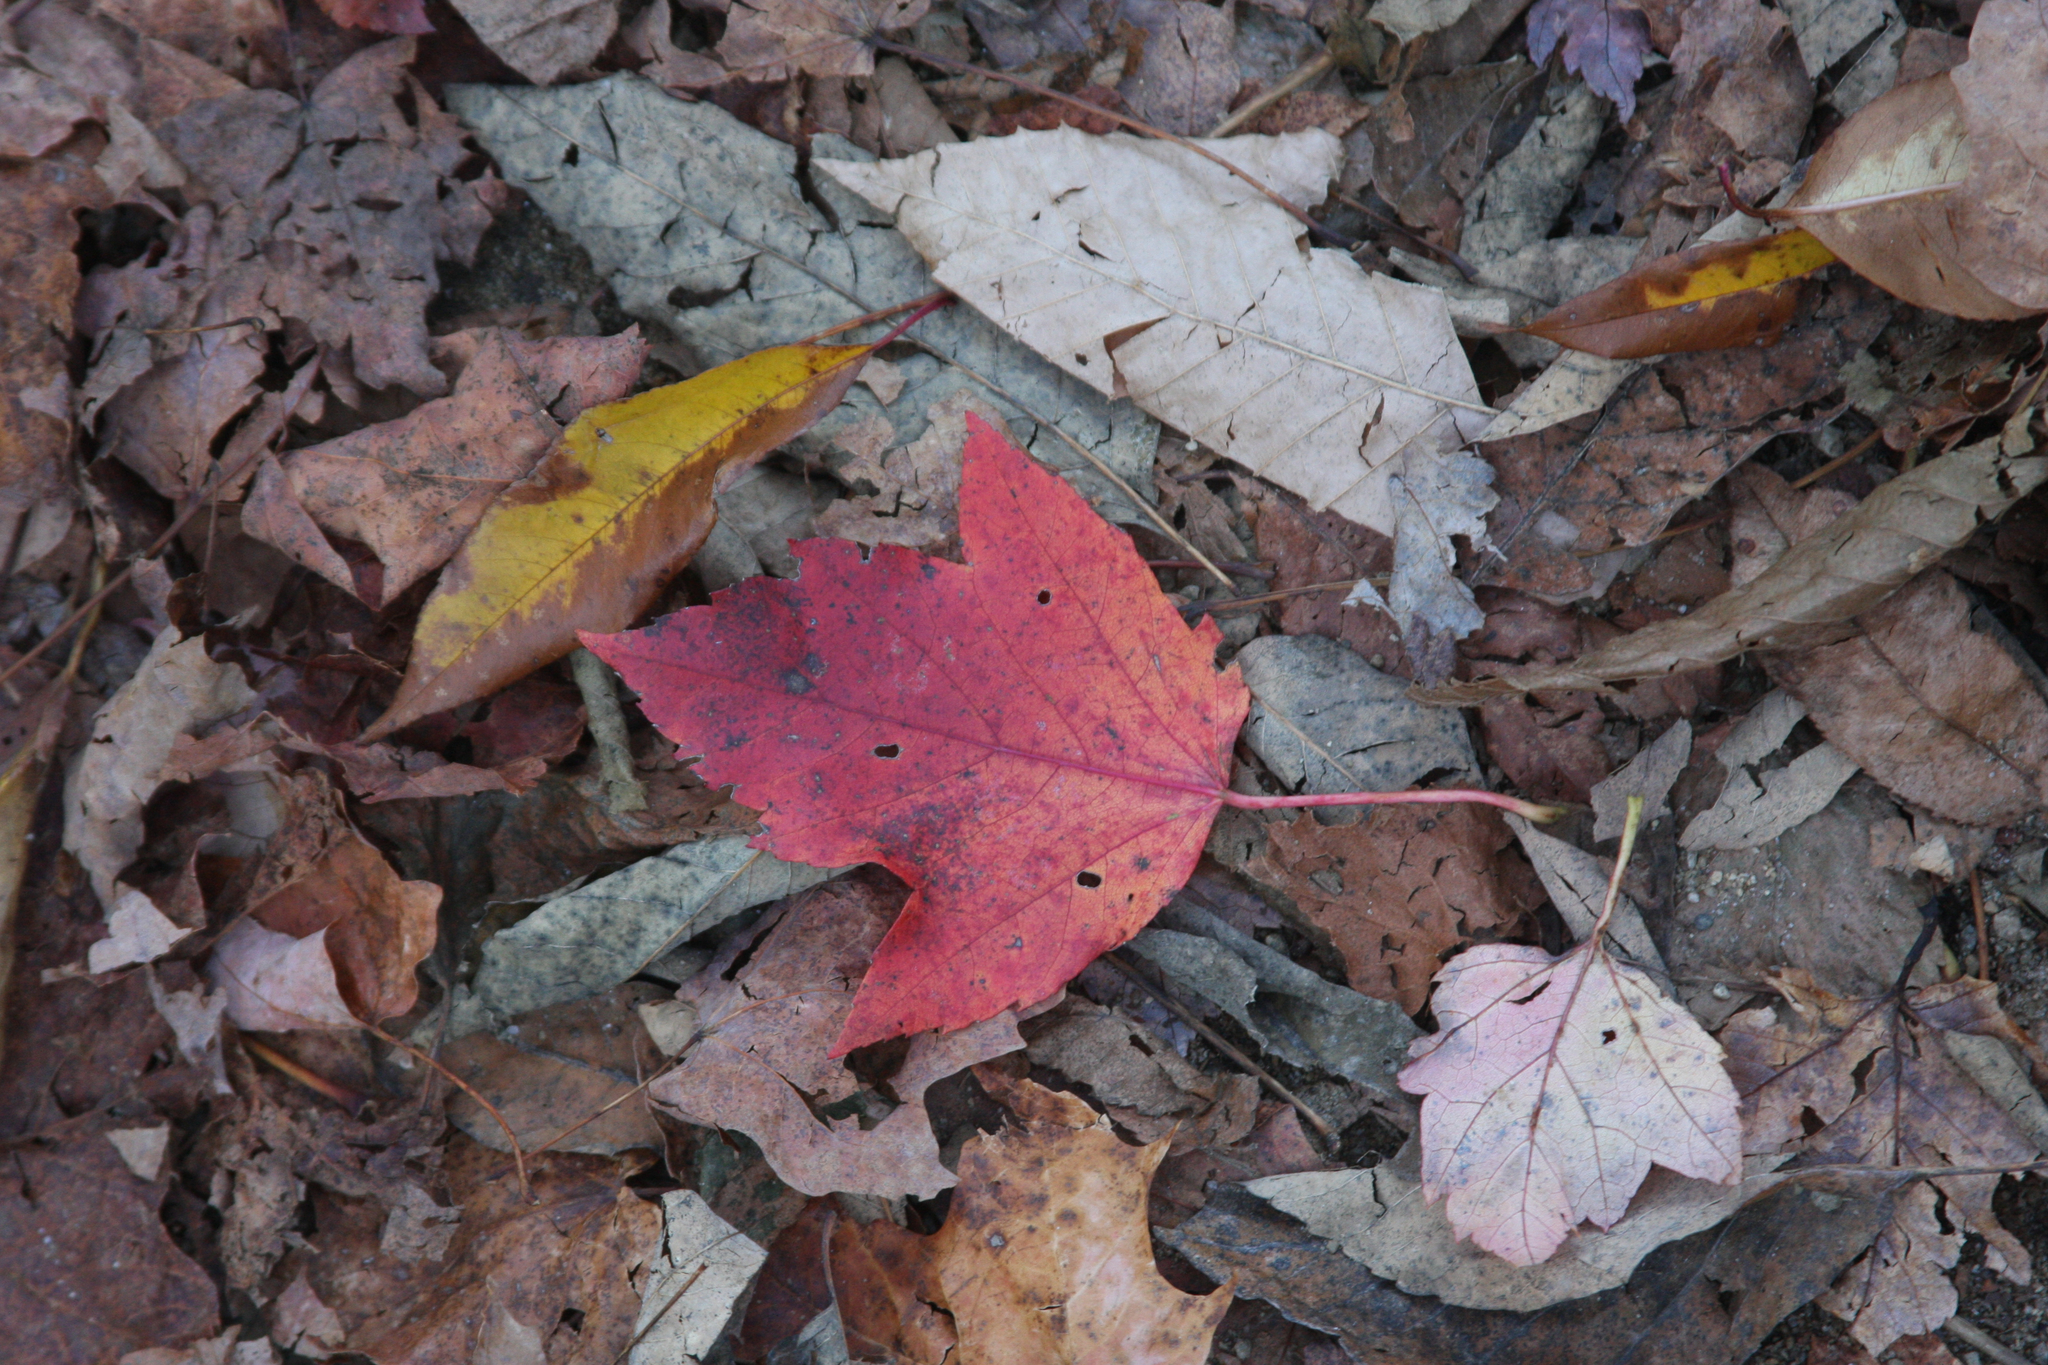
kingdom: Plantae
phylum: Tracheophyta
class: Magnoliopsida
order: Sapindales
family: Sapindaceae
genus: Acer
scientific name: Acer rubrum
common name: Red maple
